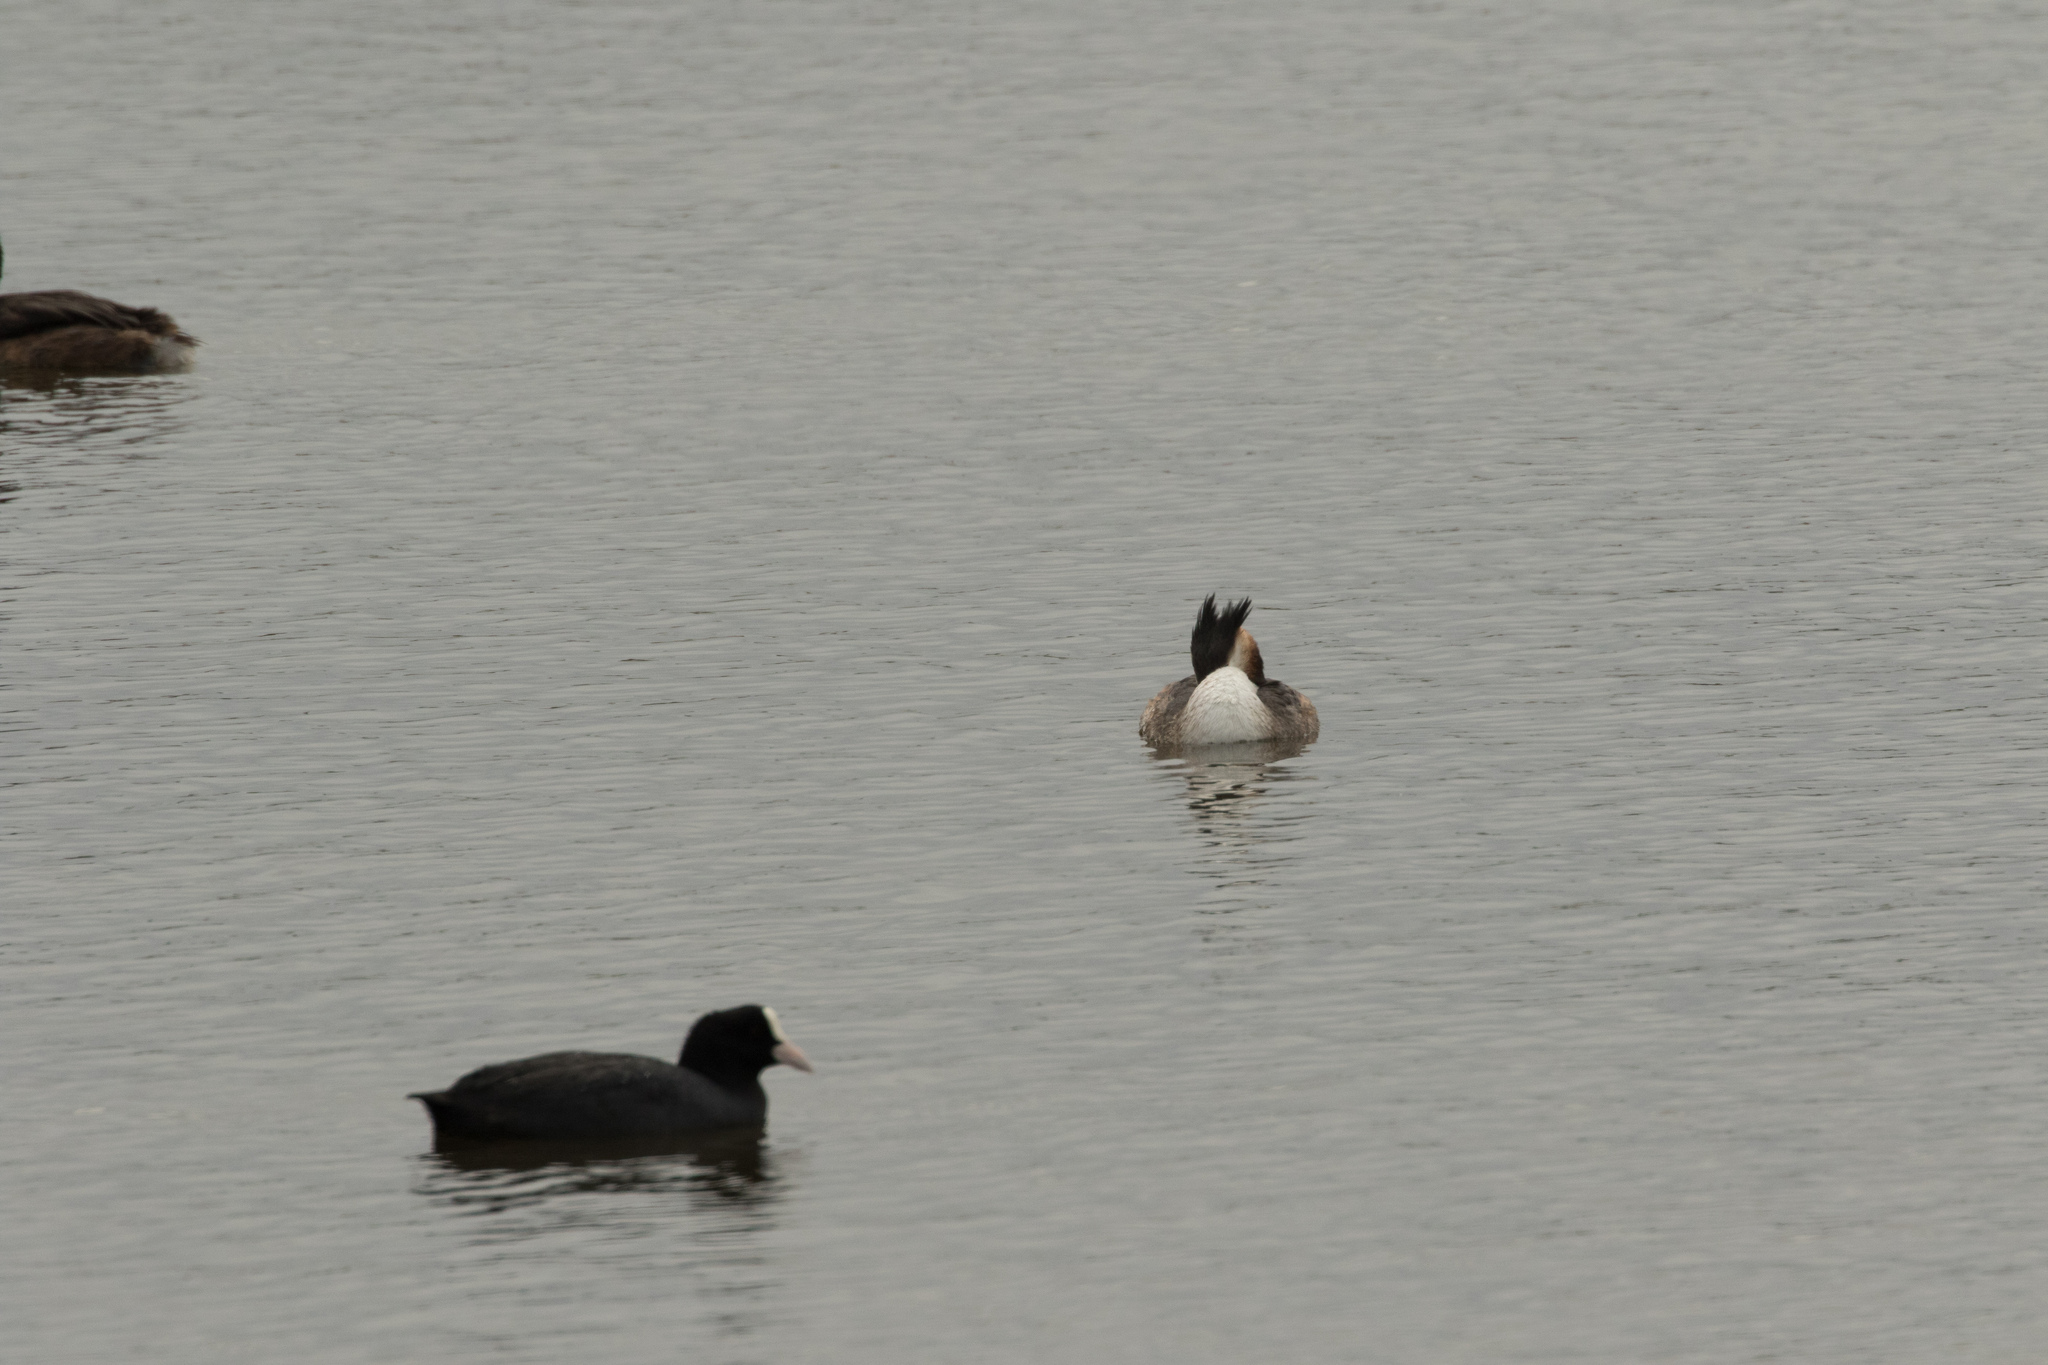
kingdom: Animalia
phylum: Chordata
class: Aves
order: Podicipediformes
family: Podicipedidae
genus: Podiceps
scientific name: Podiceps cristatus
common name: Great crested grebe
